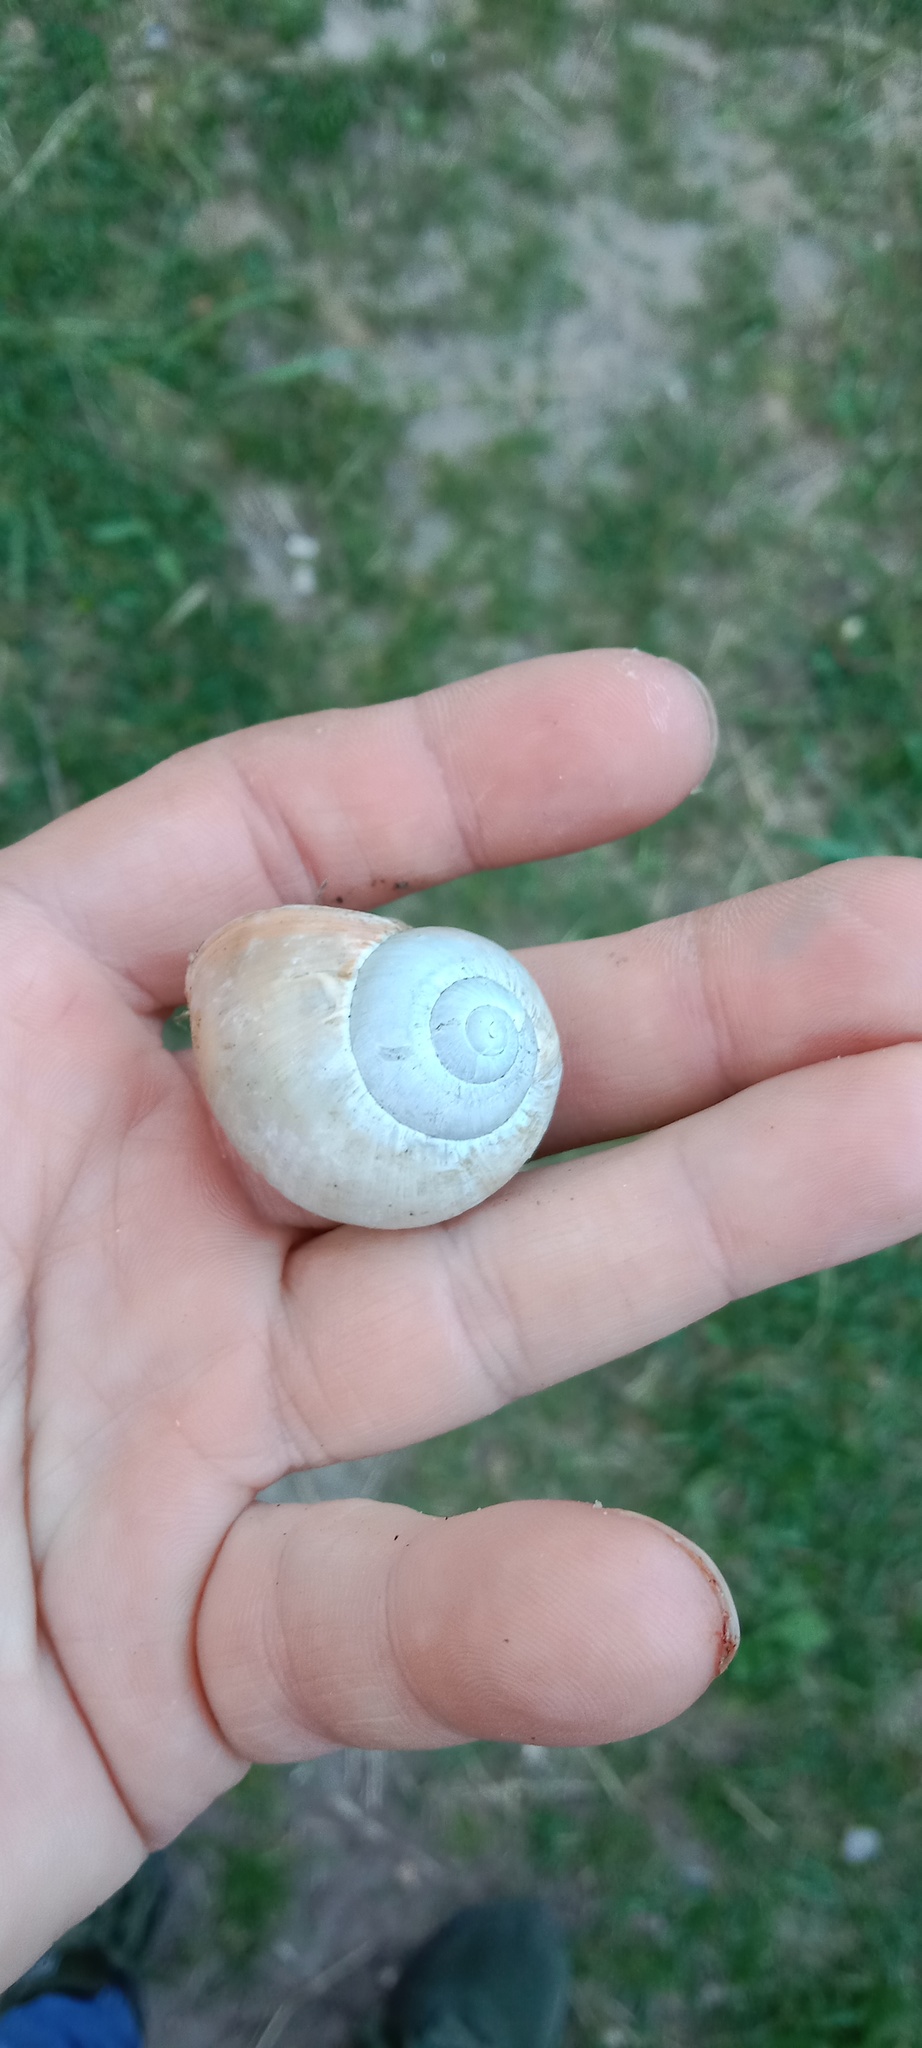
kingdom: Animalia
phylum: Mollusca
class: Gastropoda
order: Stylommatophora
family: Helicidae
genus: Helix
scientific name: Helix lutescens
